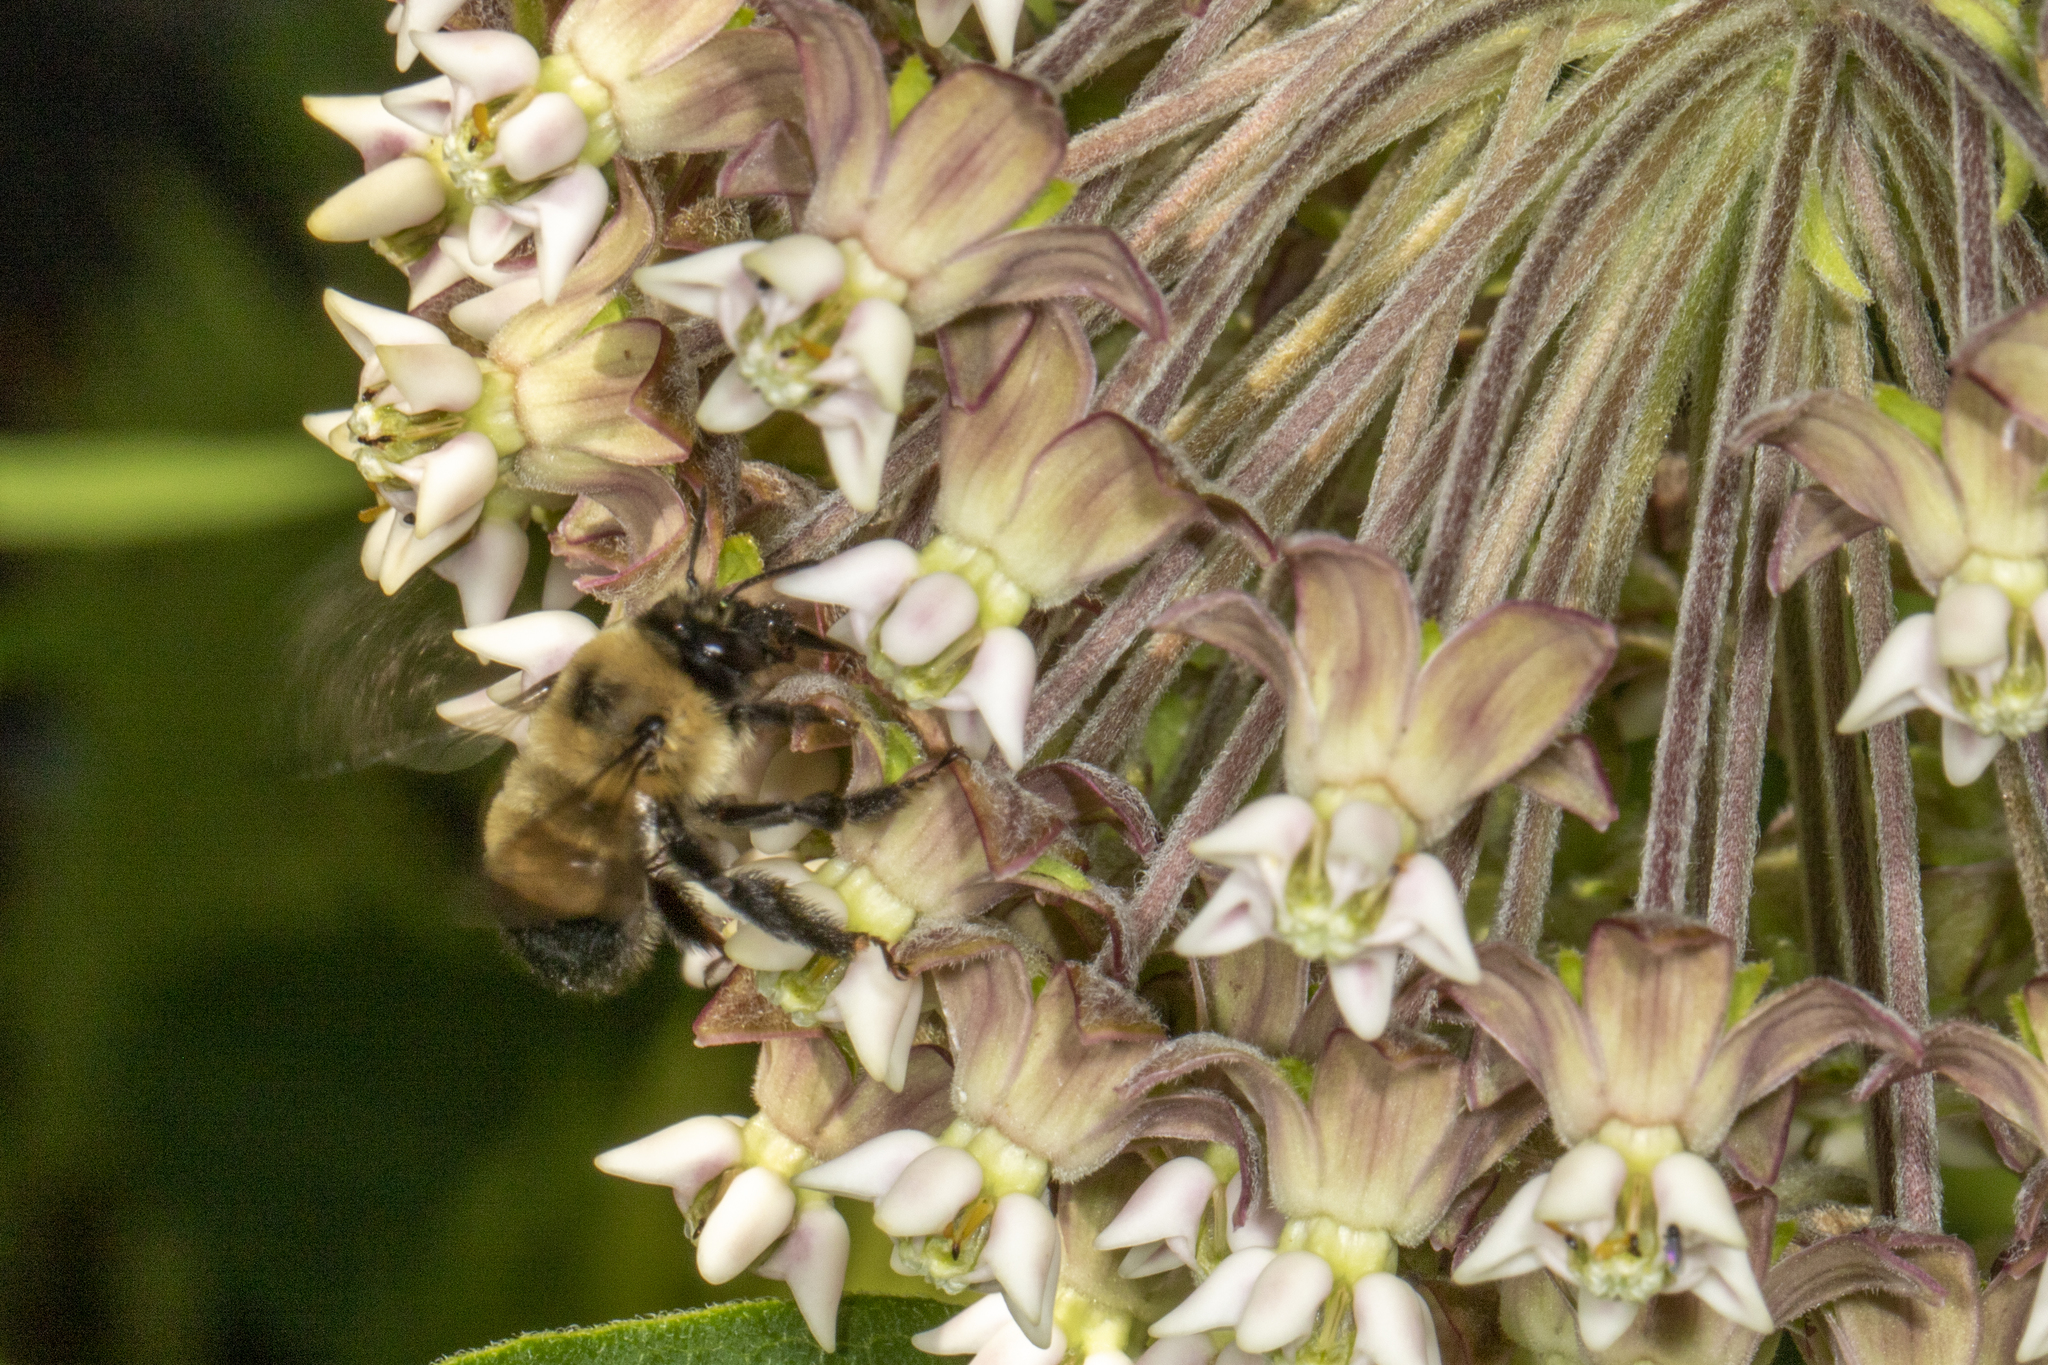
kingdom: Animalia
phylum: Arthropoda
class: Insecta
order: Hymenoptera
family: Apidae
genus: Anthophora
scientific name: Anthophora bomboides
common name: Bumble-bee-mimic digger bee
